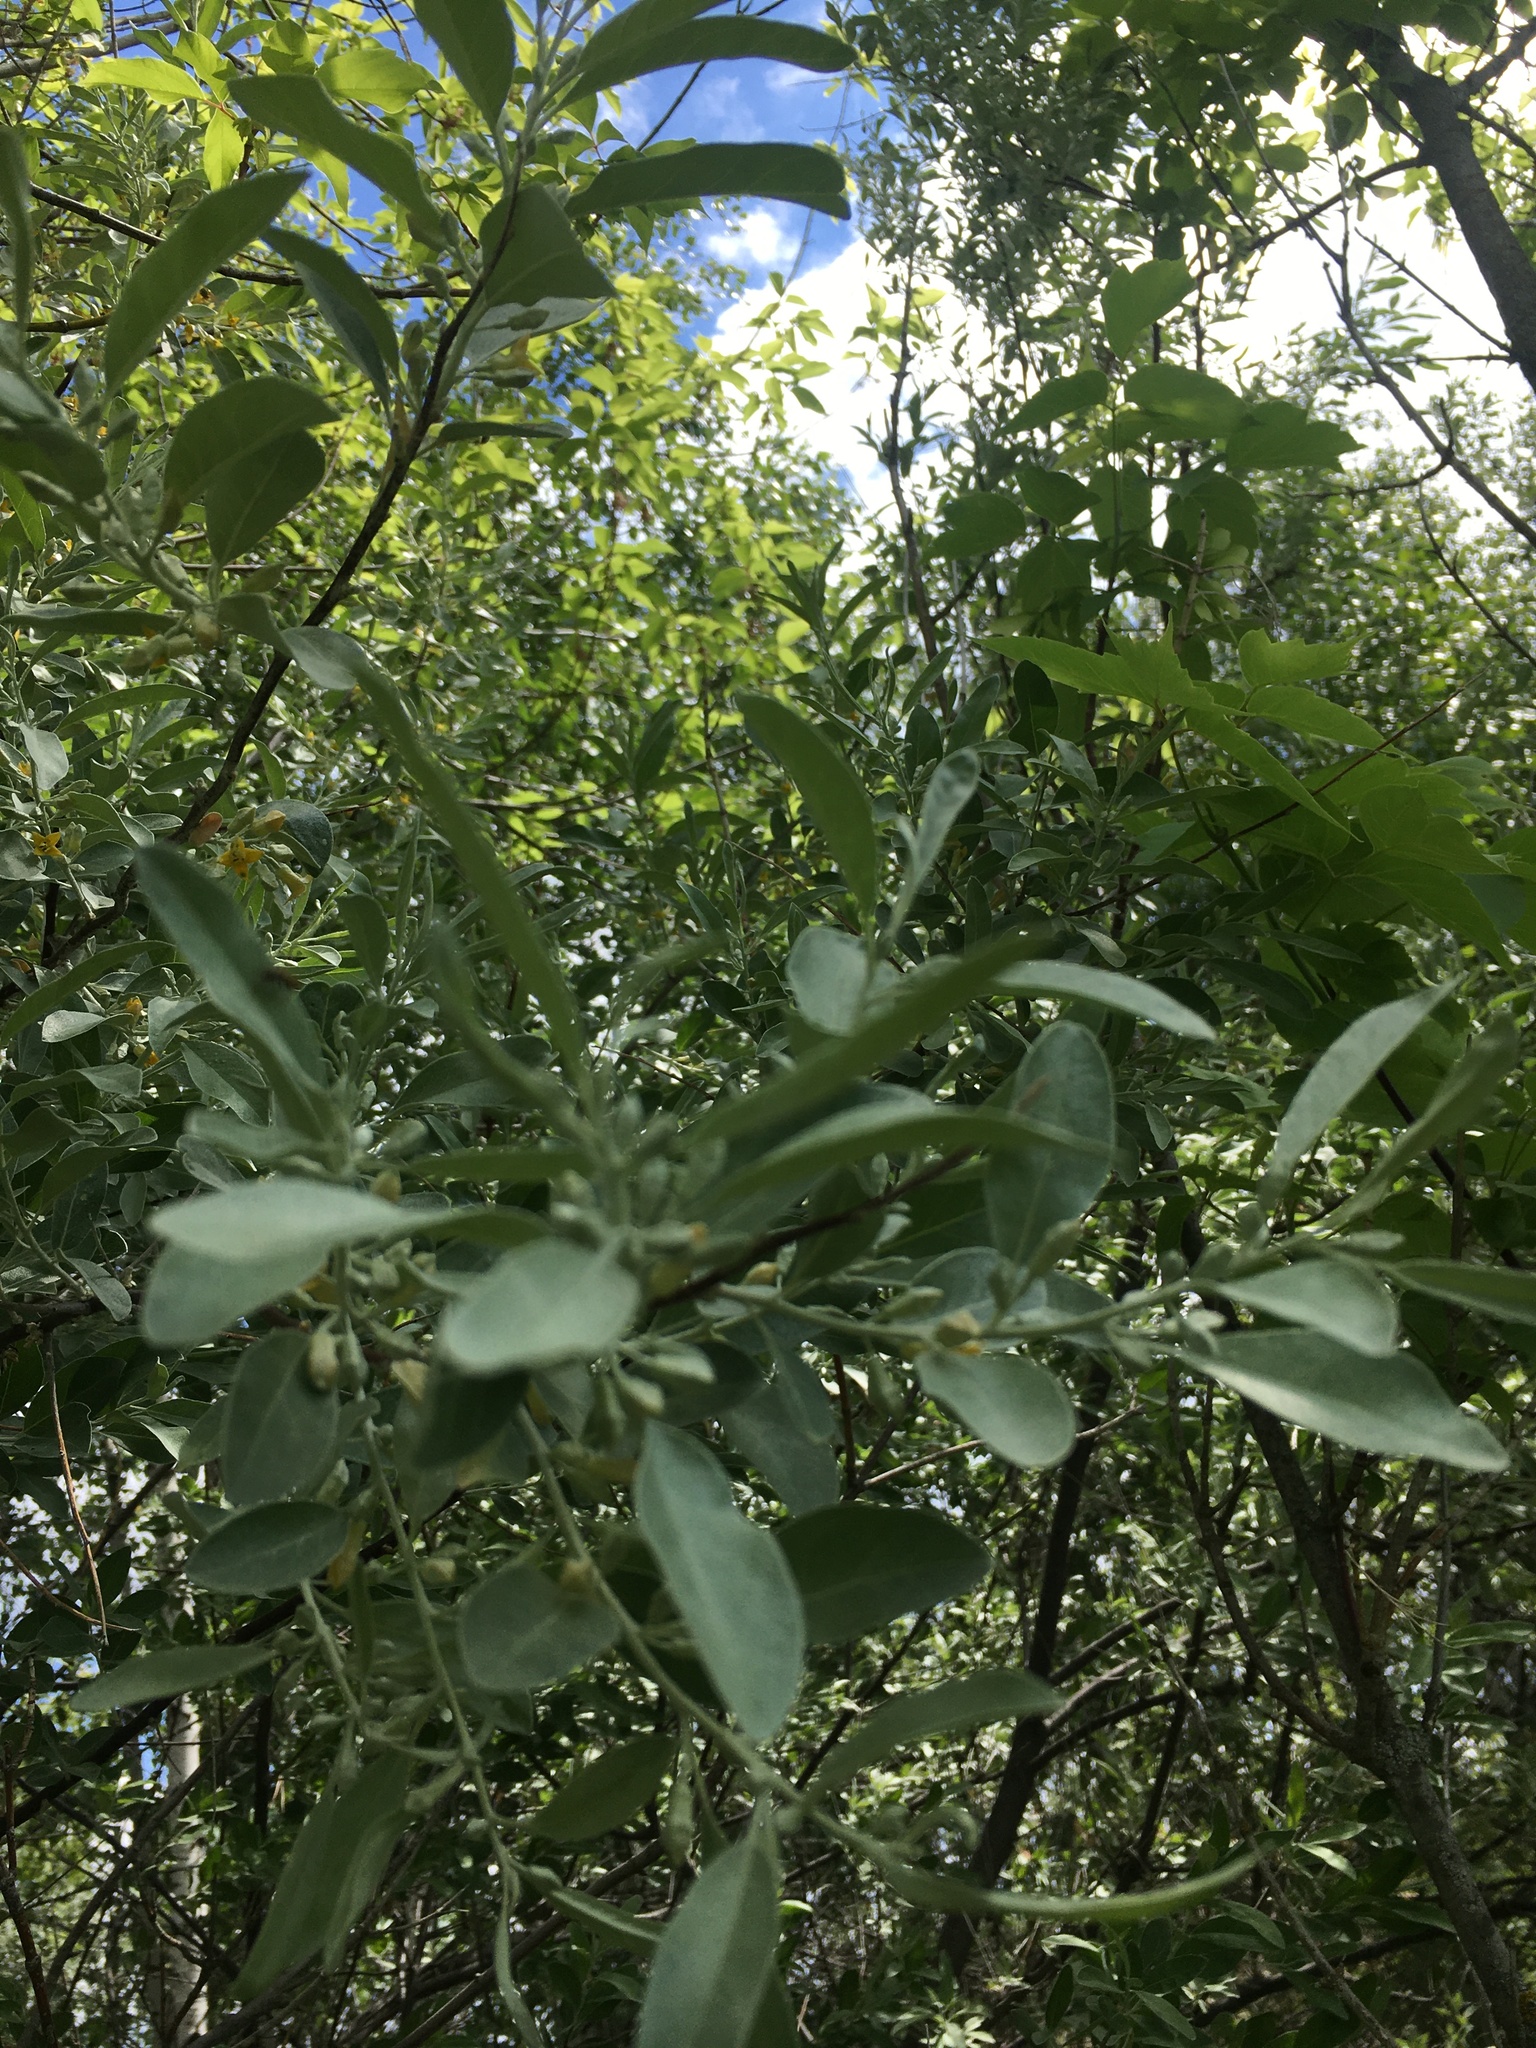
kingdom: Plantae
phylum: Tracheophyta
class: Magnoliopsida
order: Rosales
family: Elaeagnaceae
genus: Elaeagnus
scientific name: Elaeagnus angustifolia
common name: Russian olive
